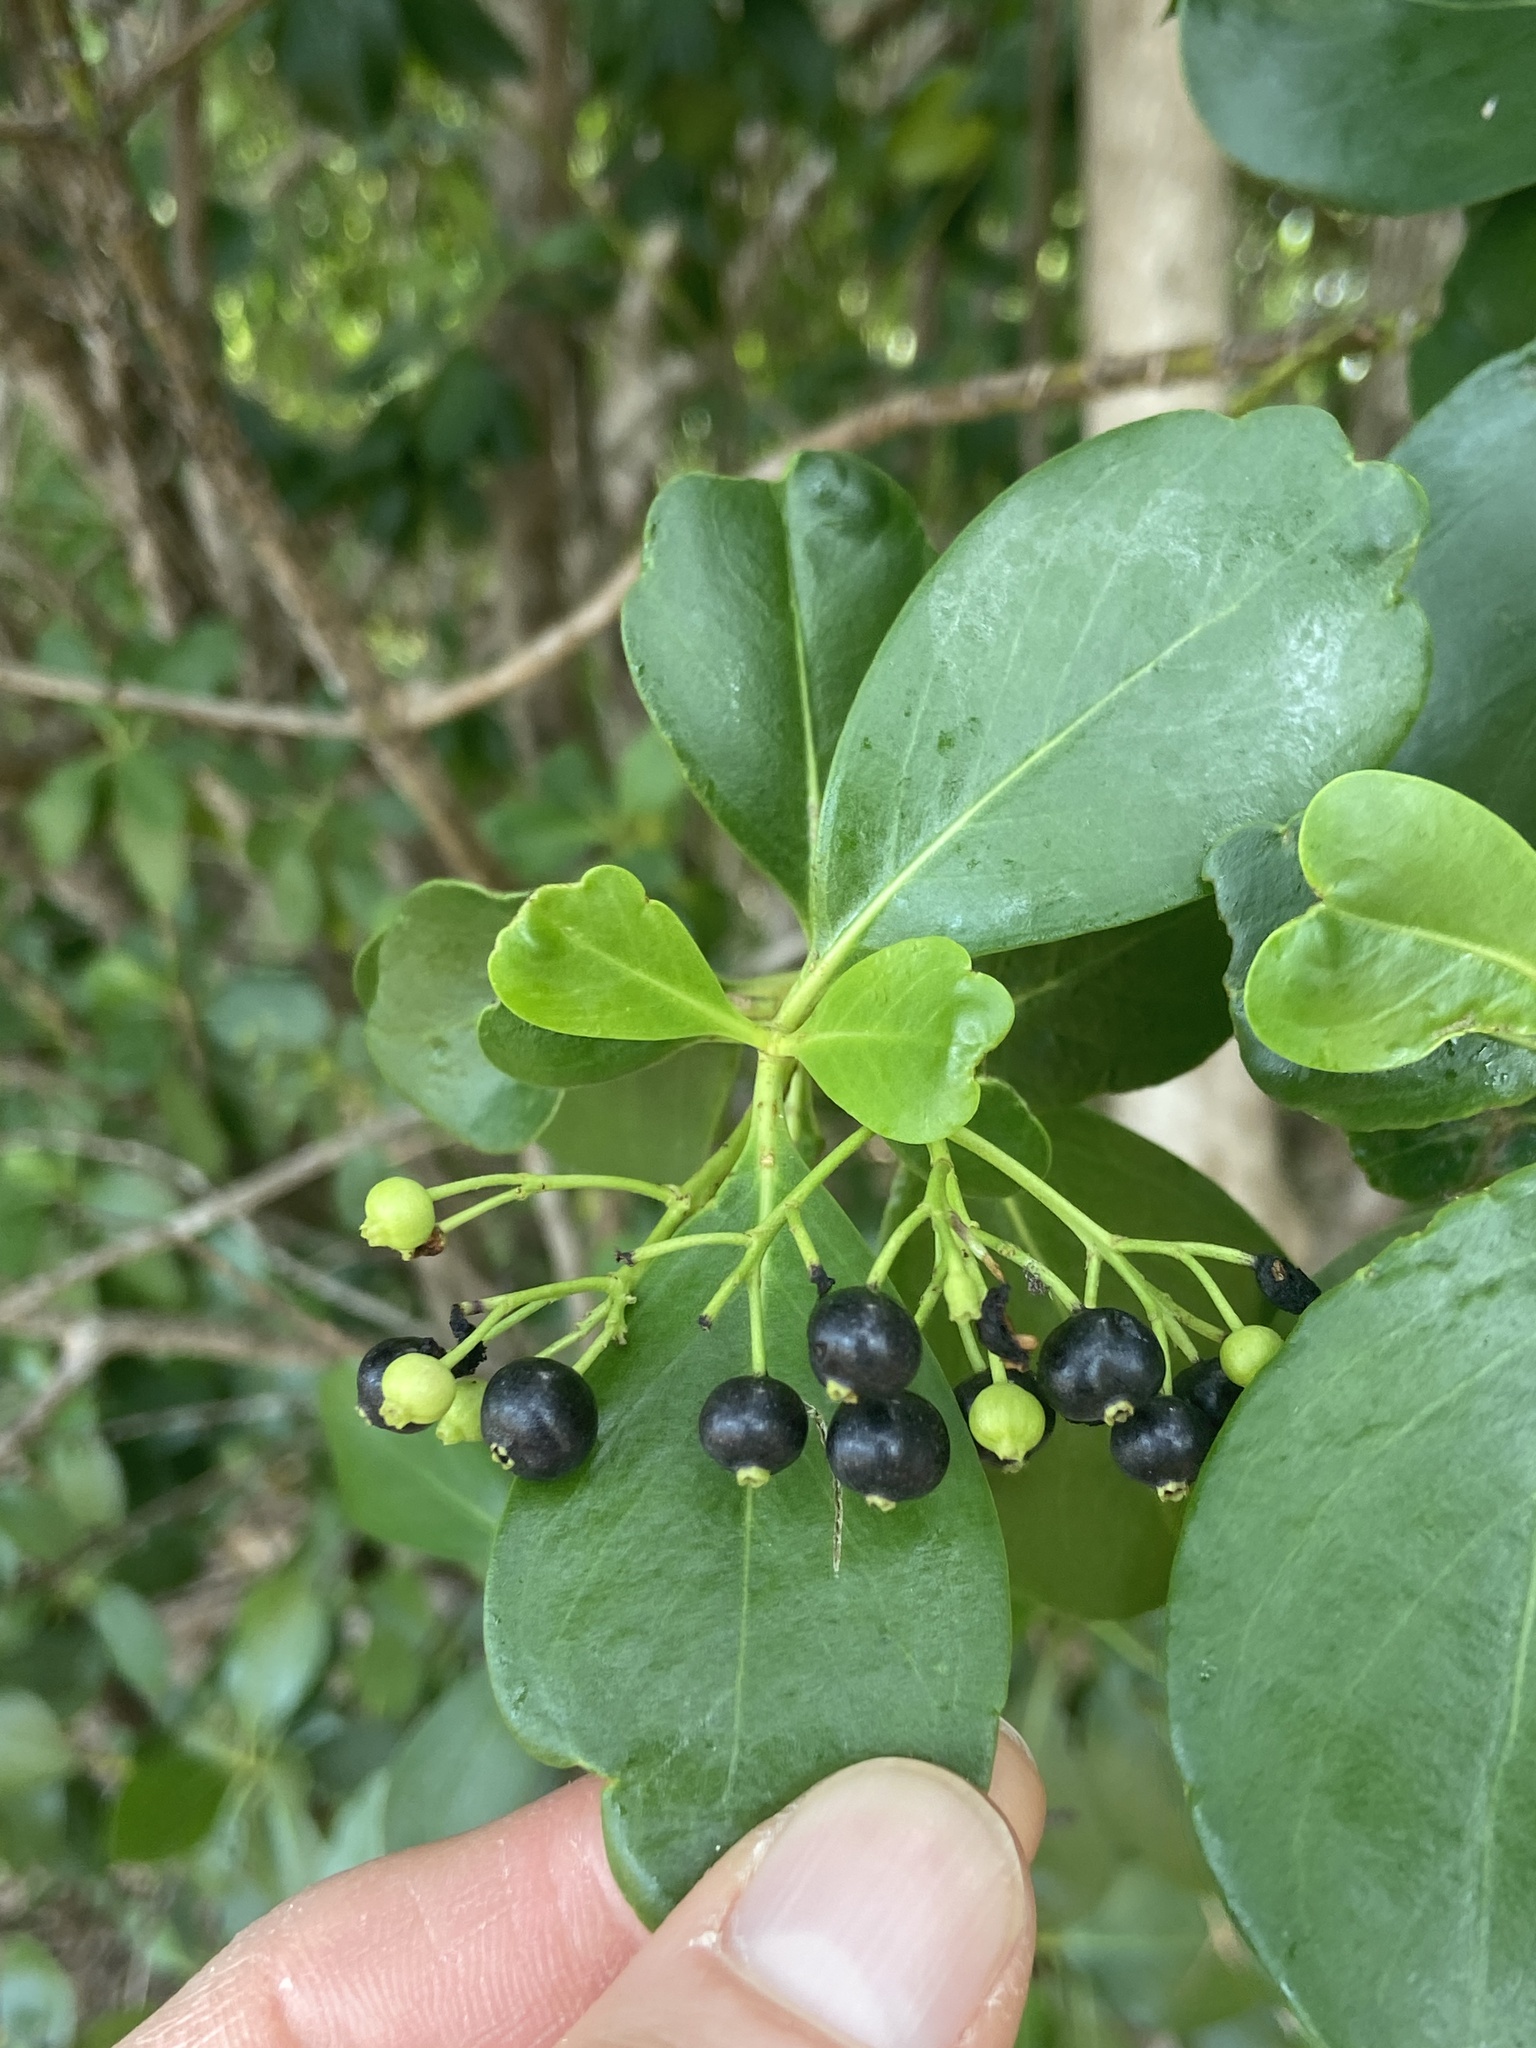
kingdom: Plantae
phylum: Tracheophyta
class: Magnoliopsida
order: Gentianales
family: Rubiaceae
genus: Erithalis
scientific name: Erithalis fruticosa
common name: Candlewood
